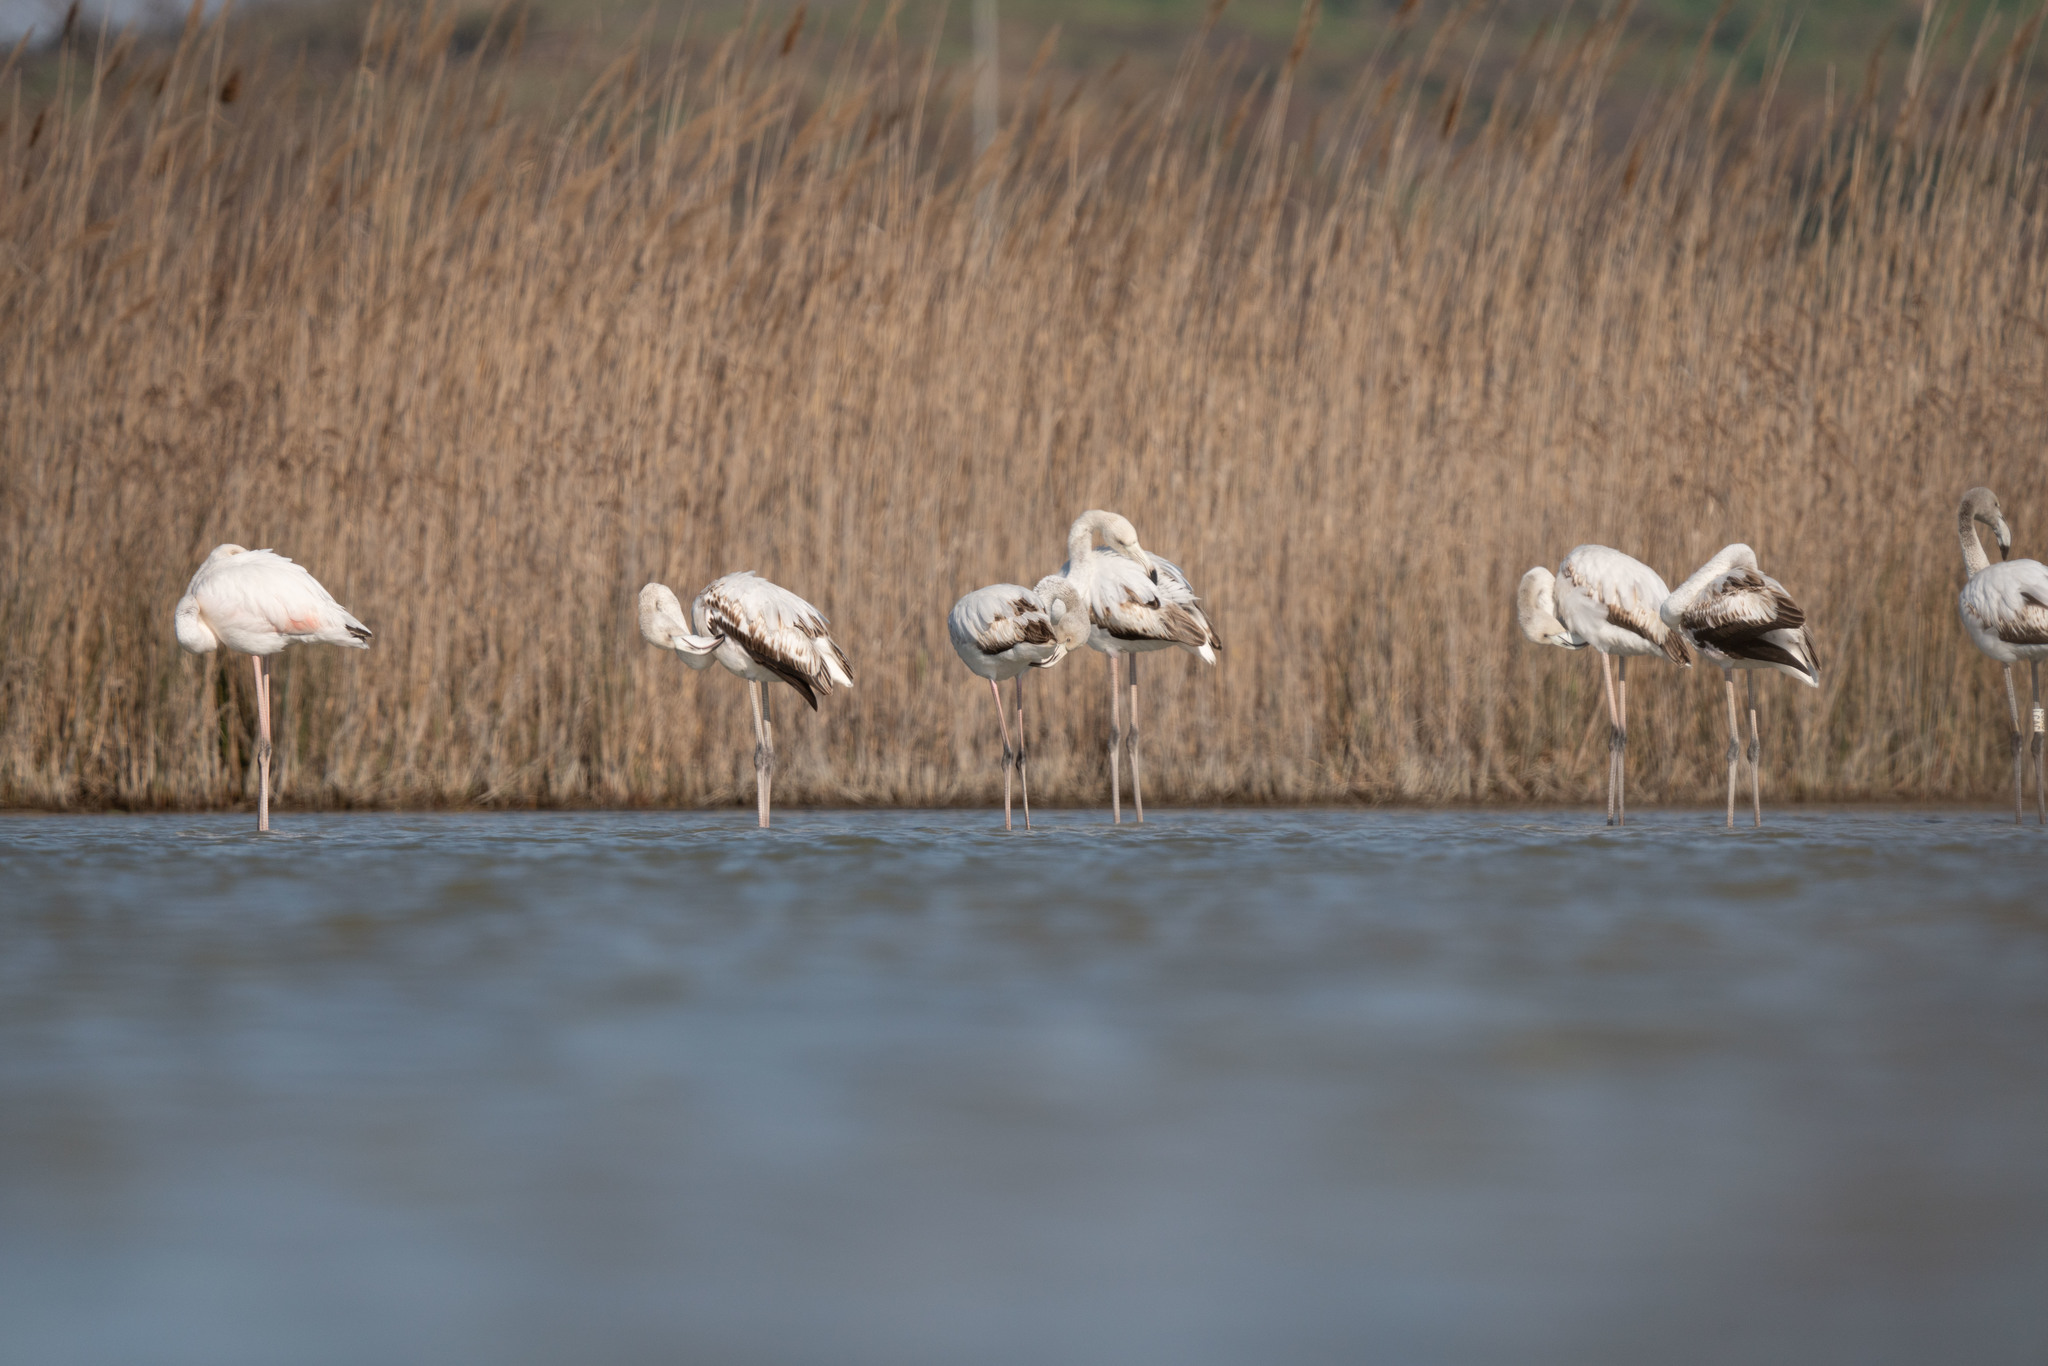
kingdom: Animalia
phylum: Chordata
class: Aves
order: Phoenicopteriformes
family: Phoenicopteridae
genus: Phoenicopterus
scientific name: Phoenicopterus roseus
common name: Greater flamingo
